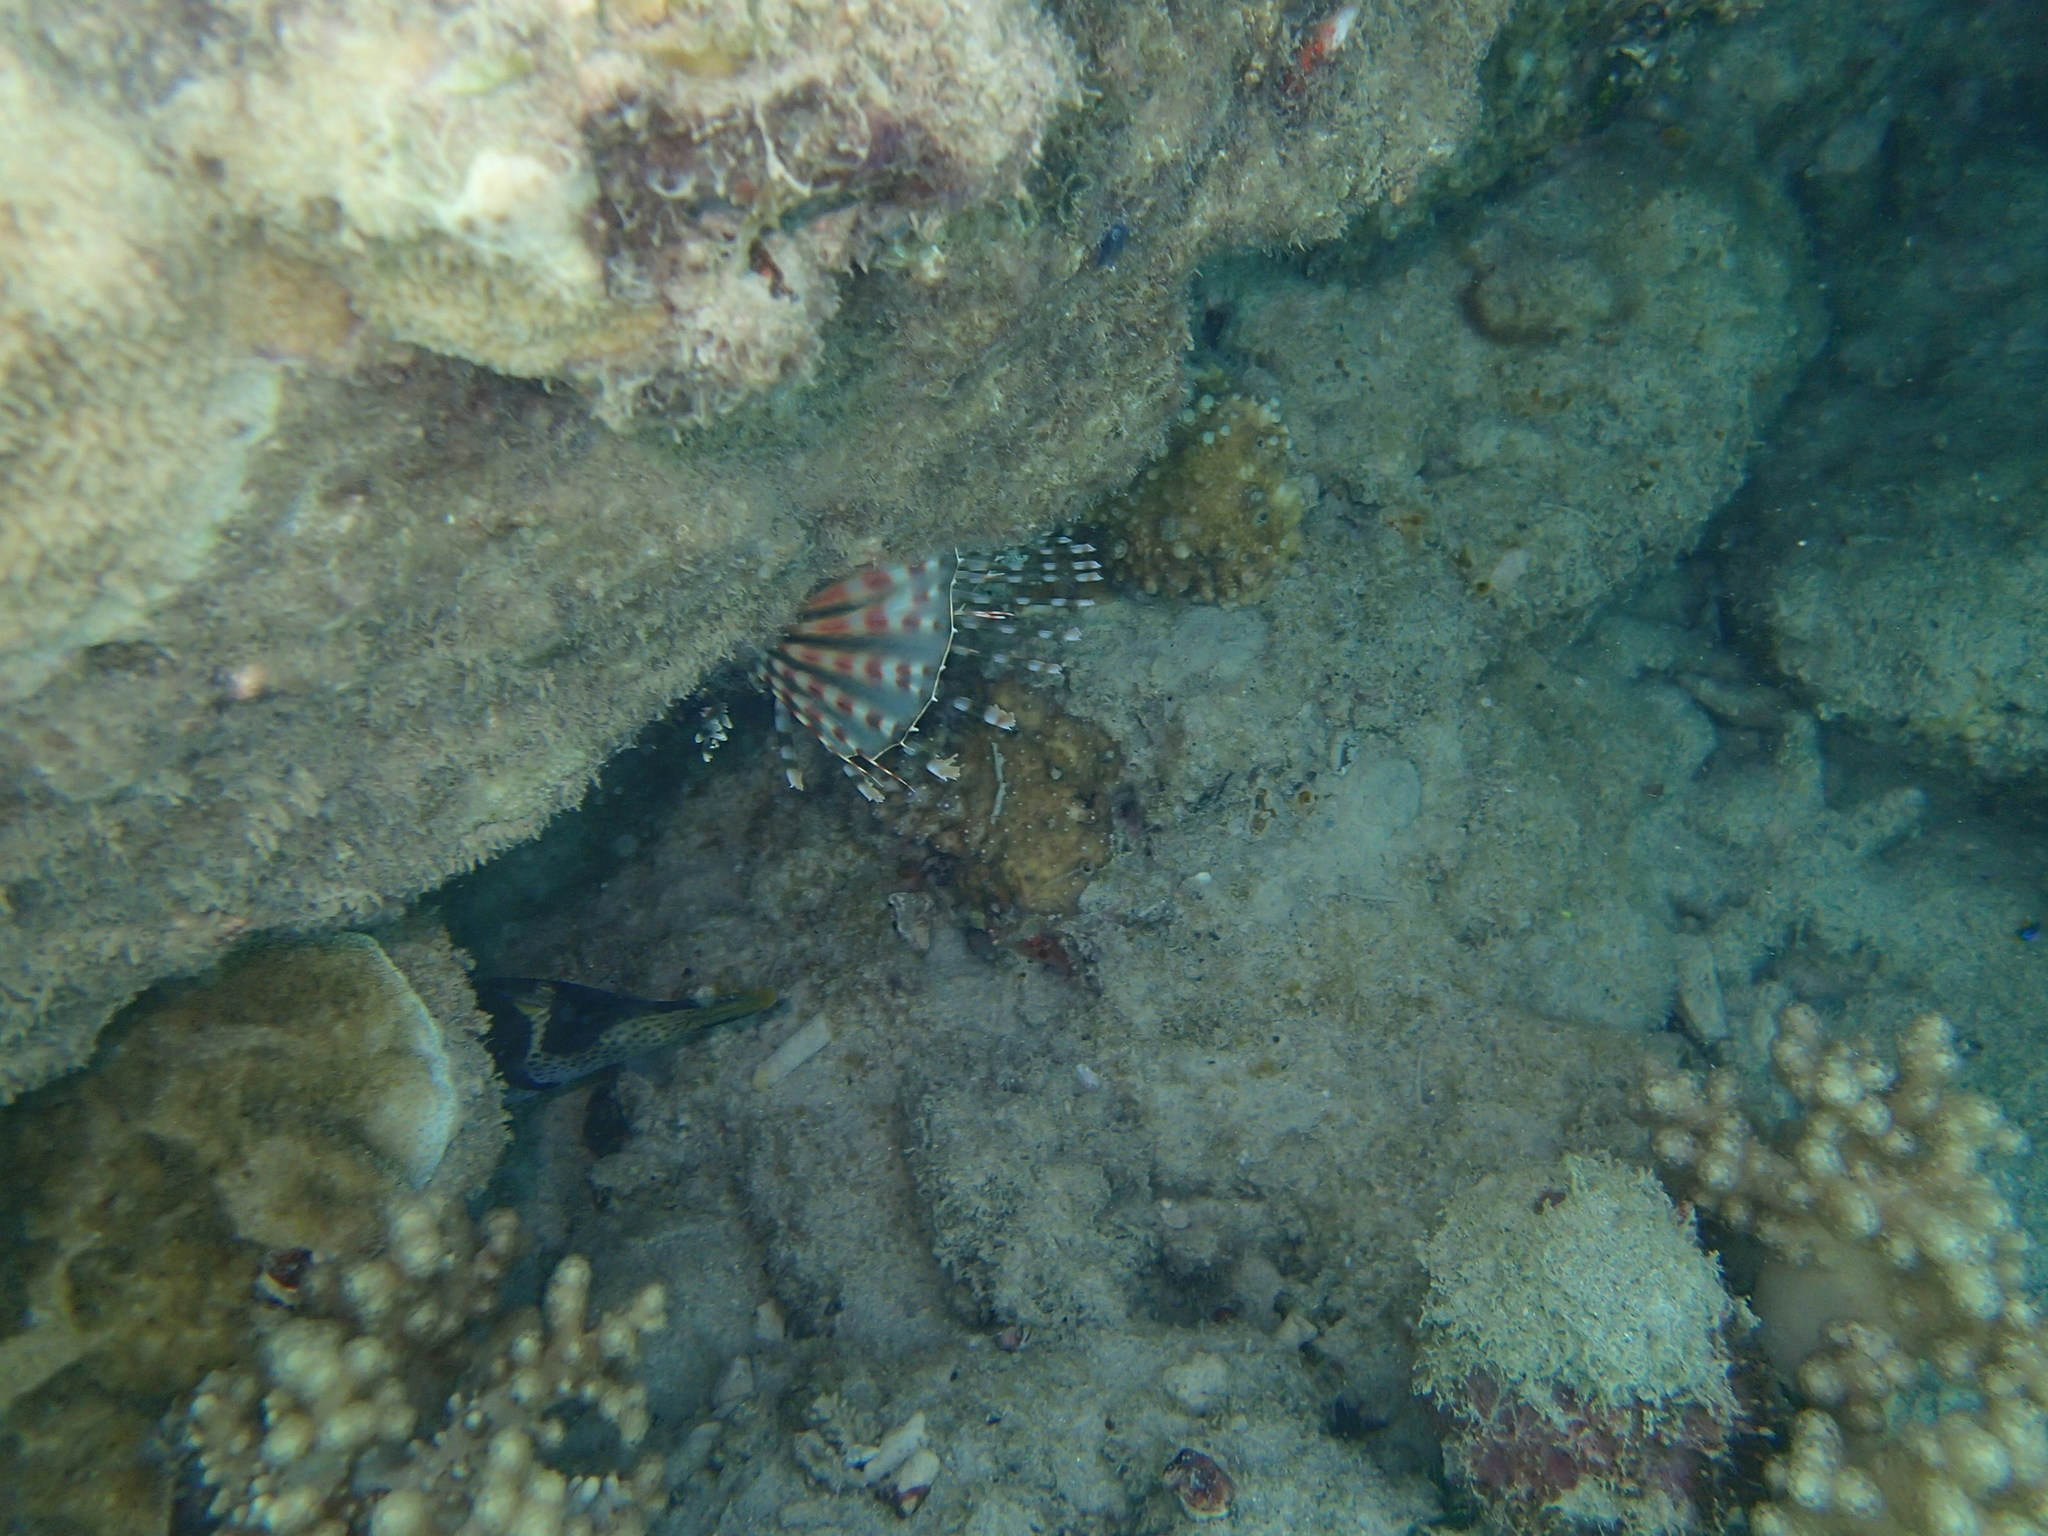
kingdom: Animalia
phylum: Chordata
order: Scorpaeniformes
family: Scorpaenidae
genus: Dendrochirus
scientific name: Dendrochirus zebra
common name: Zebra lionfish
